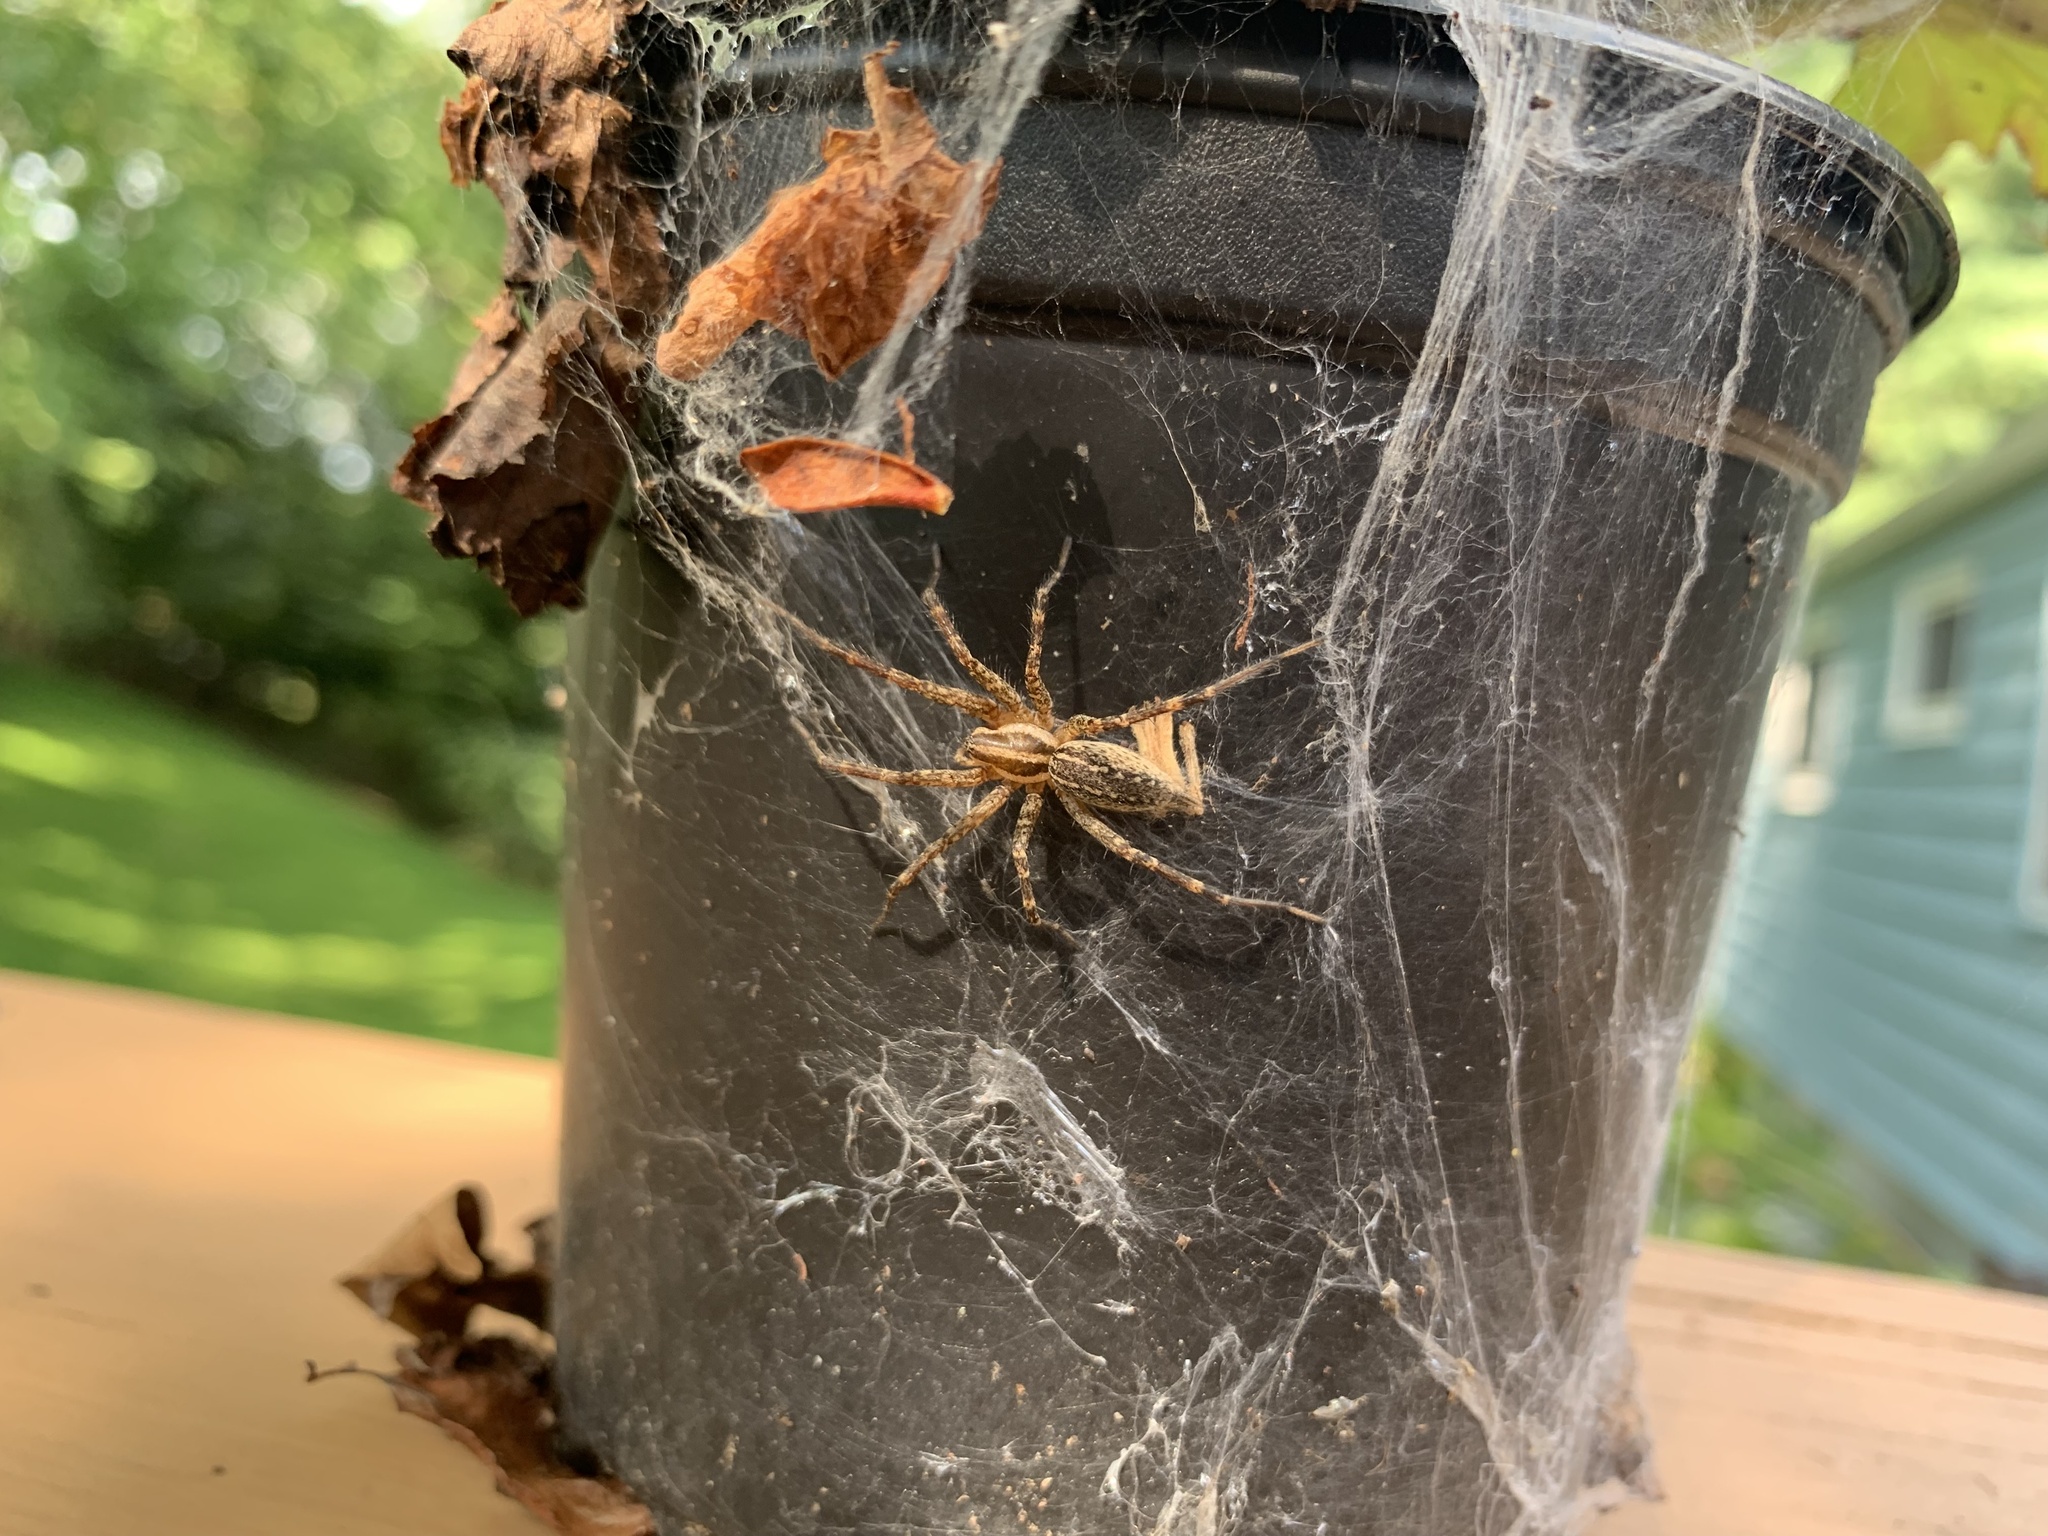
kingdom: Animalia
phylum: Arthropoda
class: Arachnida
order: Araneae
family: Agelenidae
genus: Agelenopsis
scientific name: Agelenopsis
